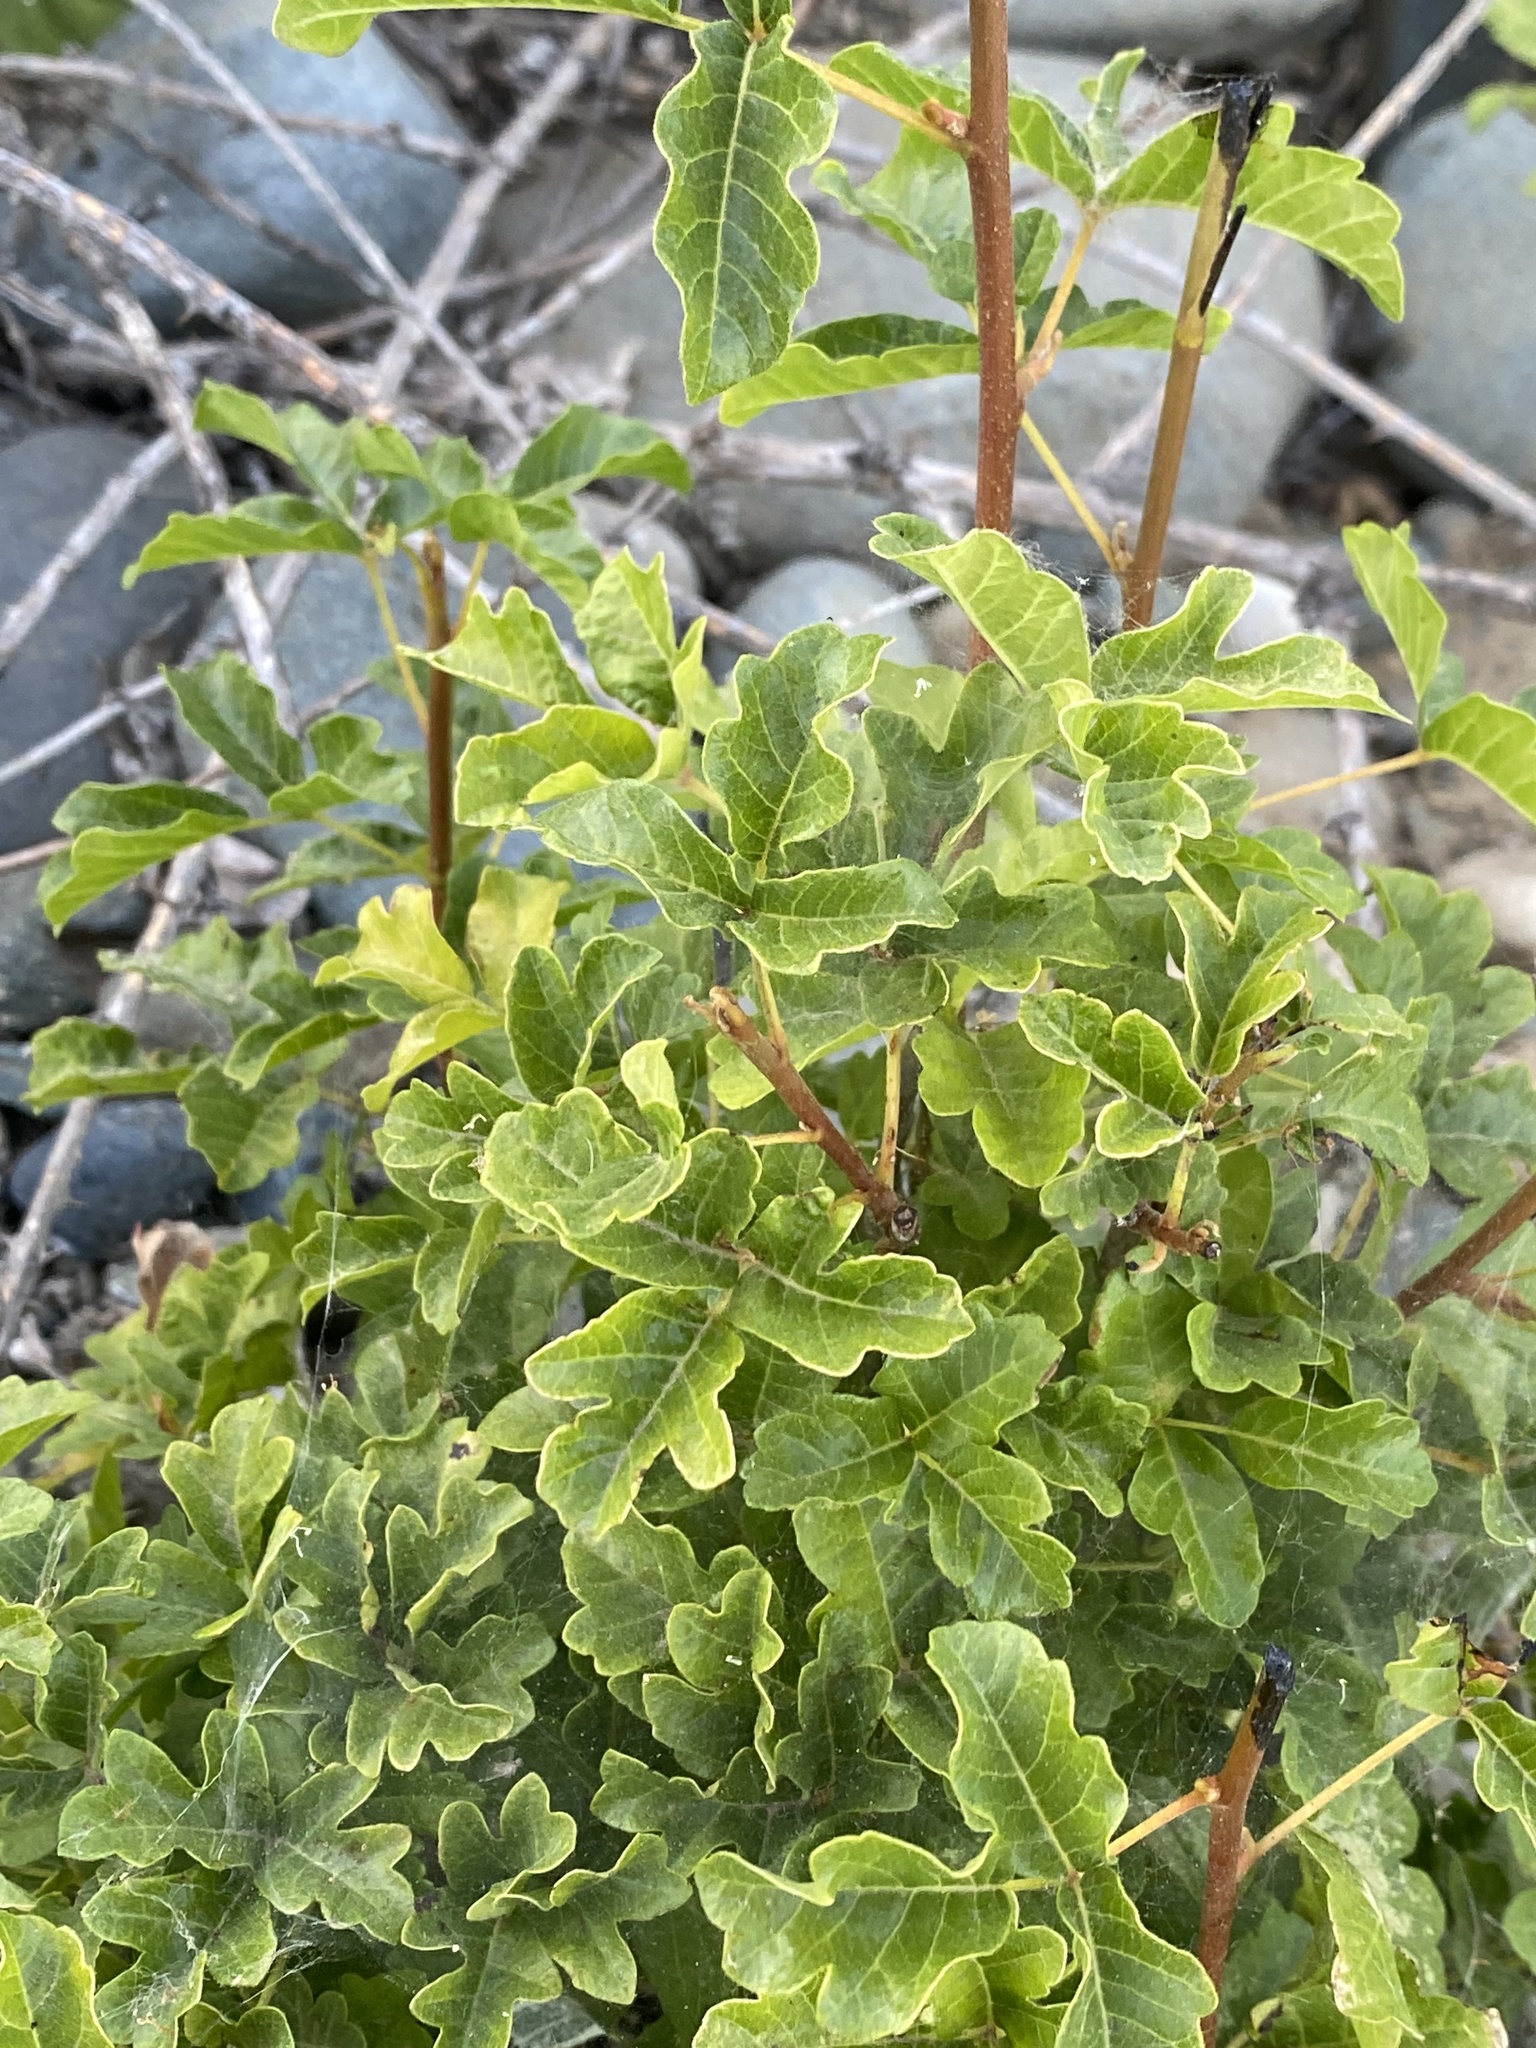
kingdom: Plantae
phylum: Tracheophyta
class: Magnoliopsida
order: Sapindales
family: Anacardiaceae
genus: Toxicodendron
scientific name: Toxicodendron diversilobum
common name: Pacific poison-oak
